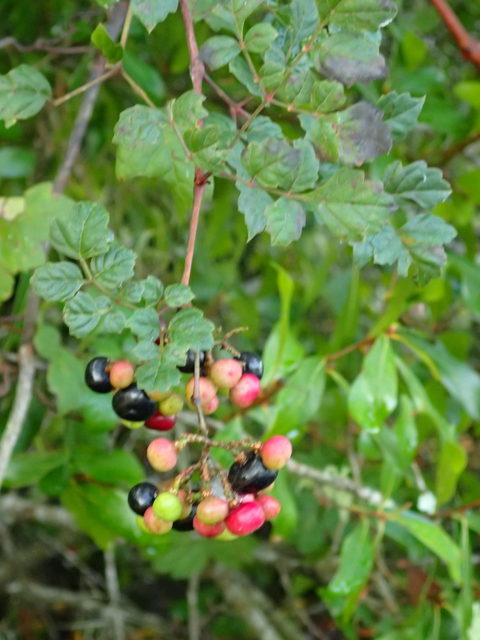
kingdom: Plantae
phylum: Tracheophyta
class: Magnoliopsida
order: Vitales
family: Vitaceae
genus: Nekemias
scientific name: Nekemias arborea
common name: Peppervine
